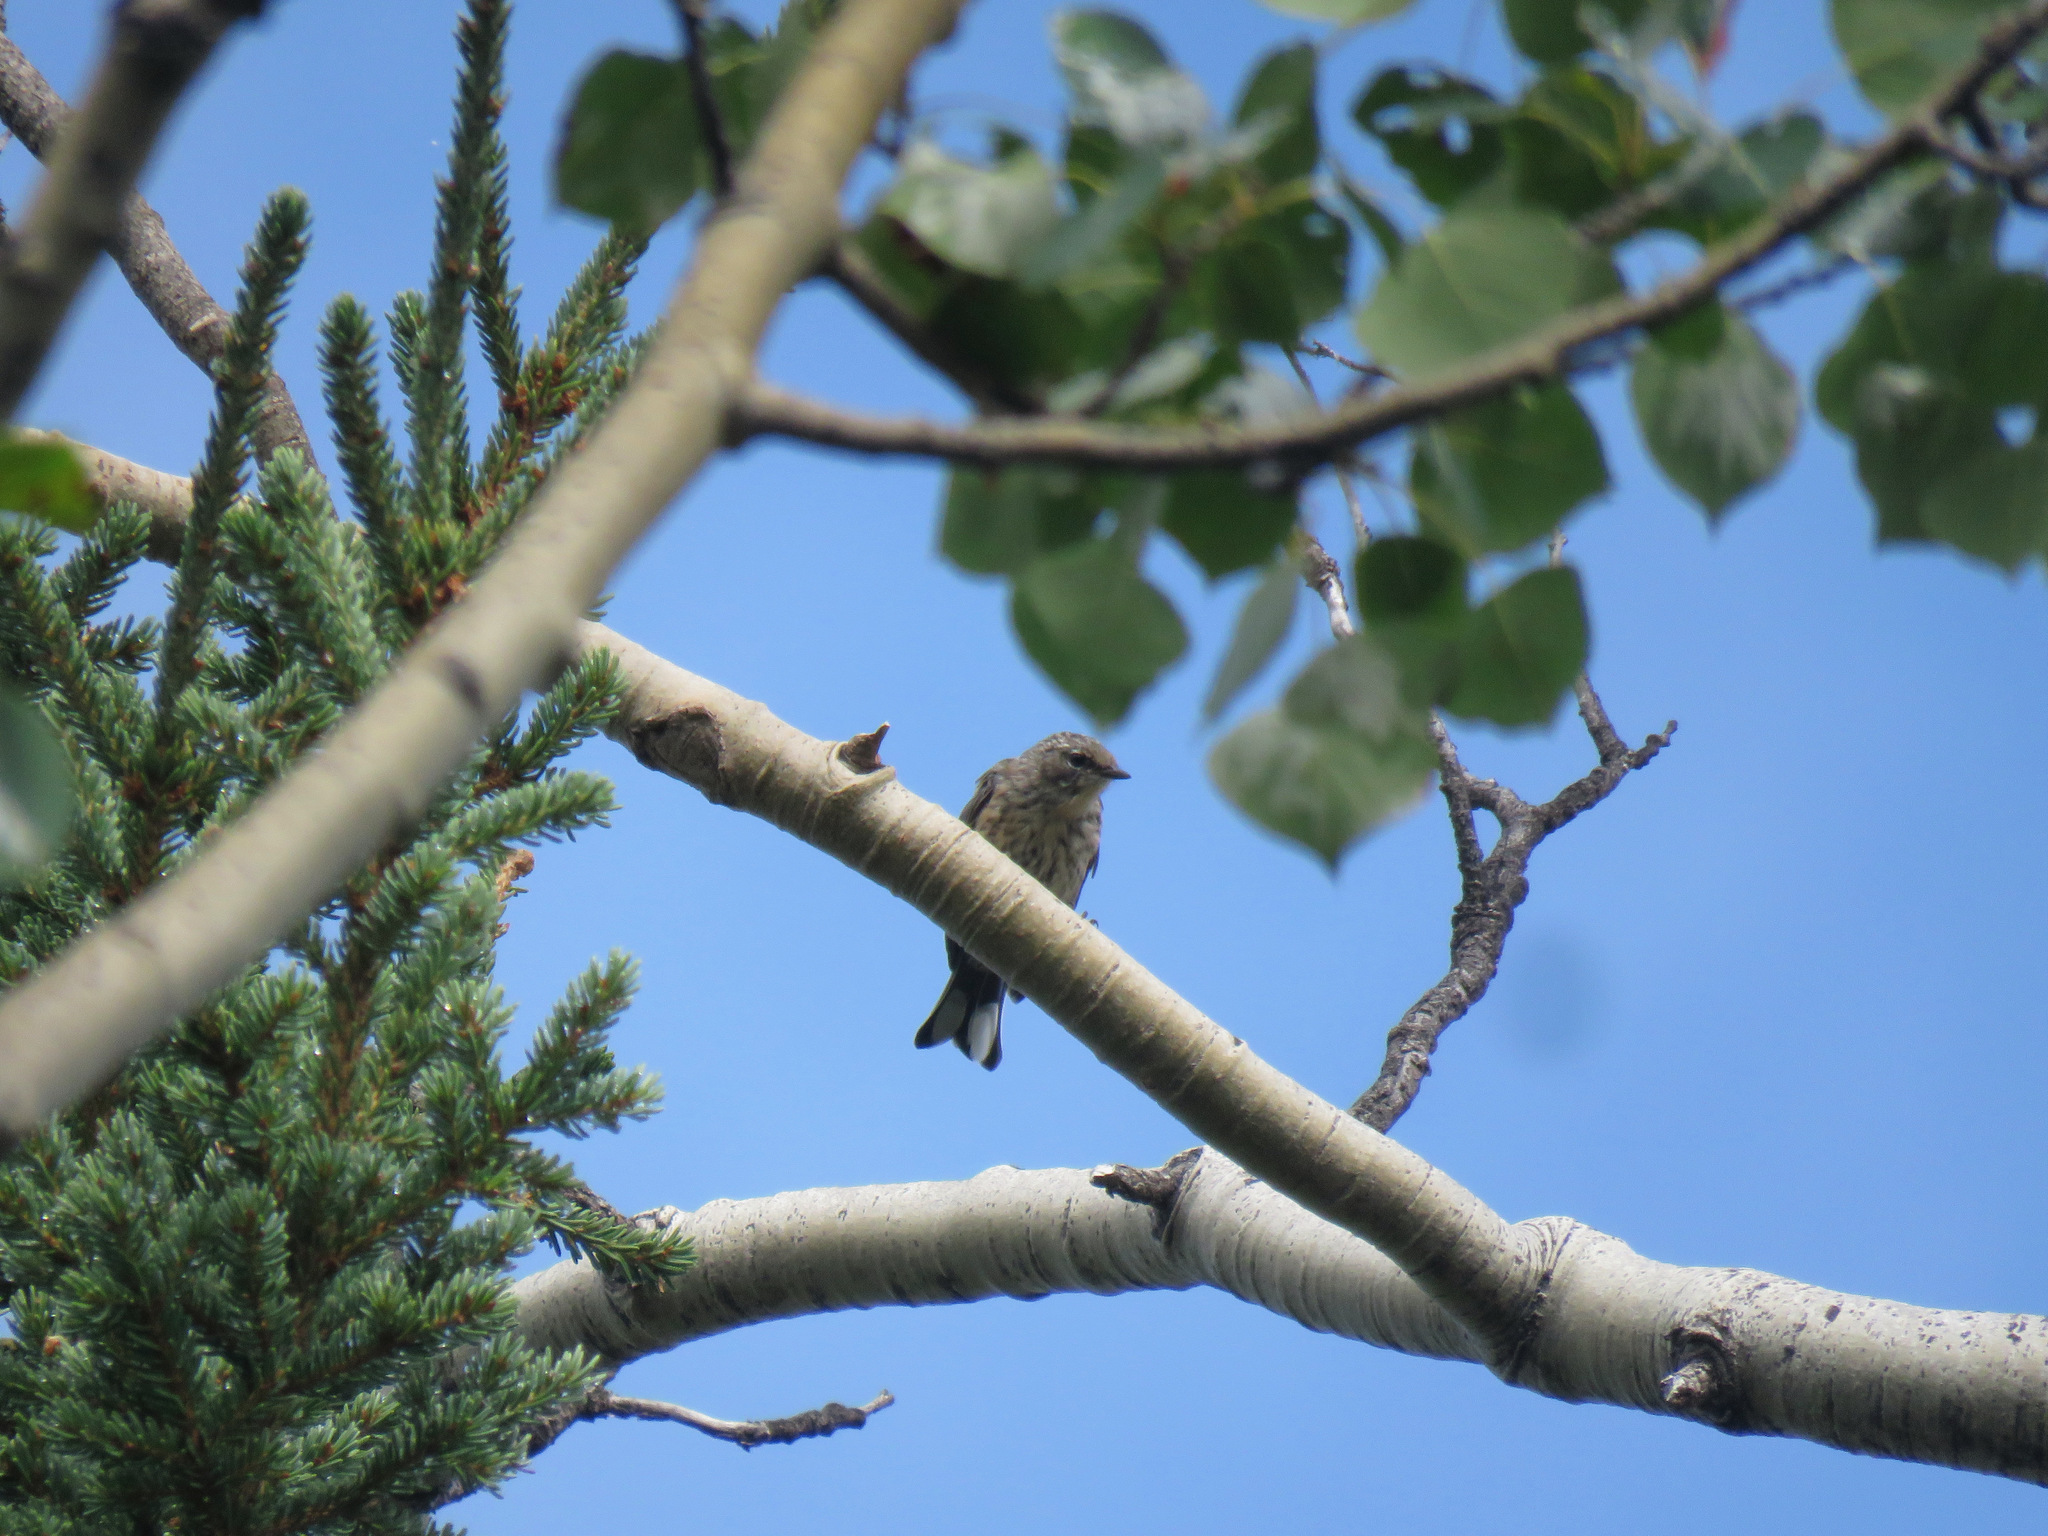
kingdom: Animalia
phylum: Chordata
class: Aves
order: Passeriformes
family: Parulidae
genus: Setophaga
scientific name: Setophaga coronata
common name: Myrtle warbler
